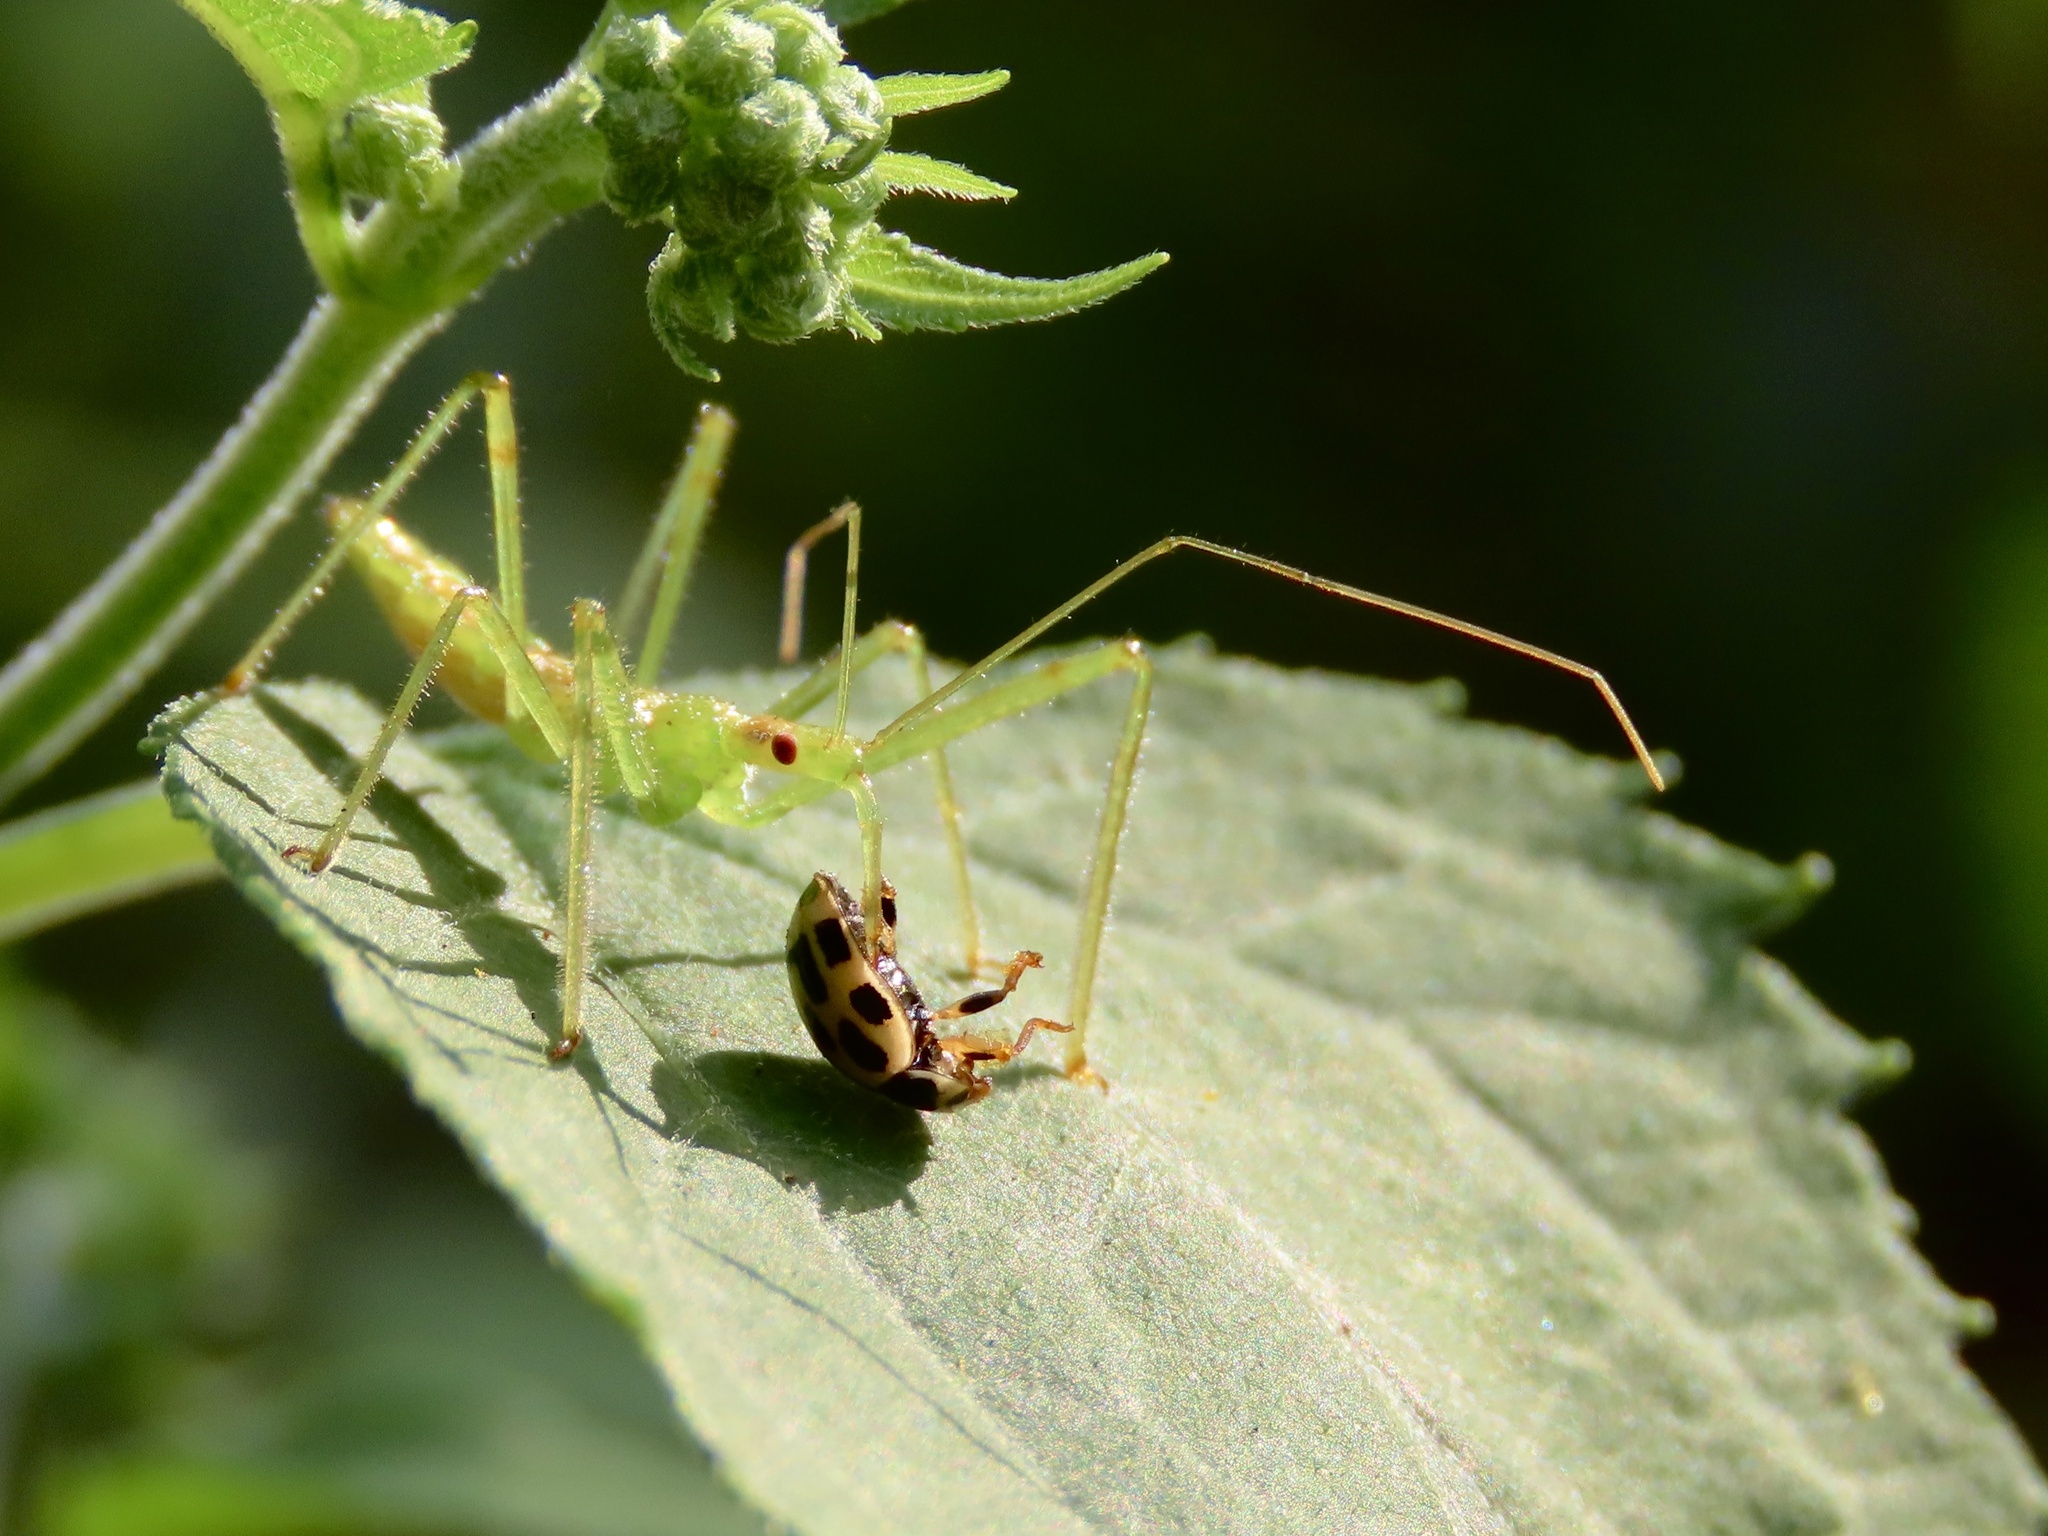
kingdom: Animalia
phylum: Arthropoda
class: Insecta
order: Hemiptera
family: Reduviidae
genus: Zelus
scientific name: Zelus luridus
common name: Pale green assassin bug
